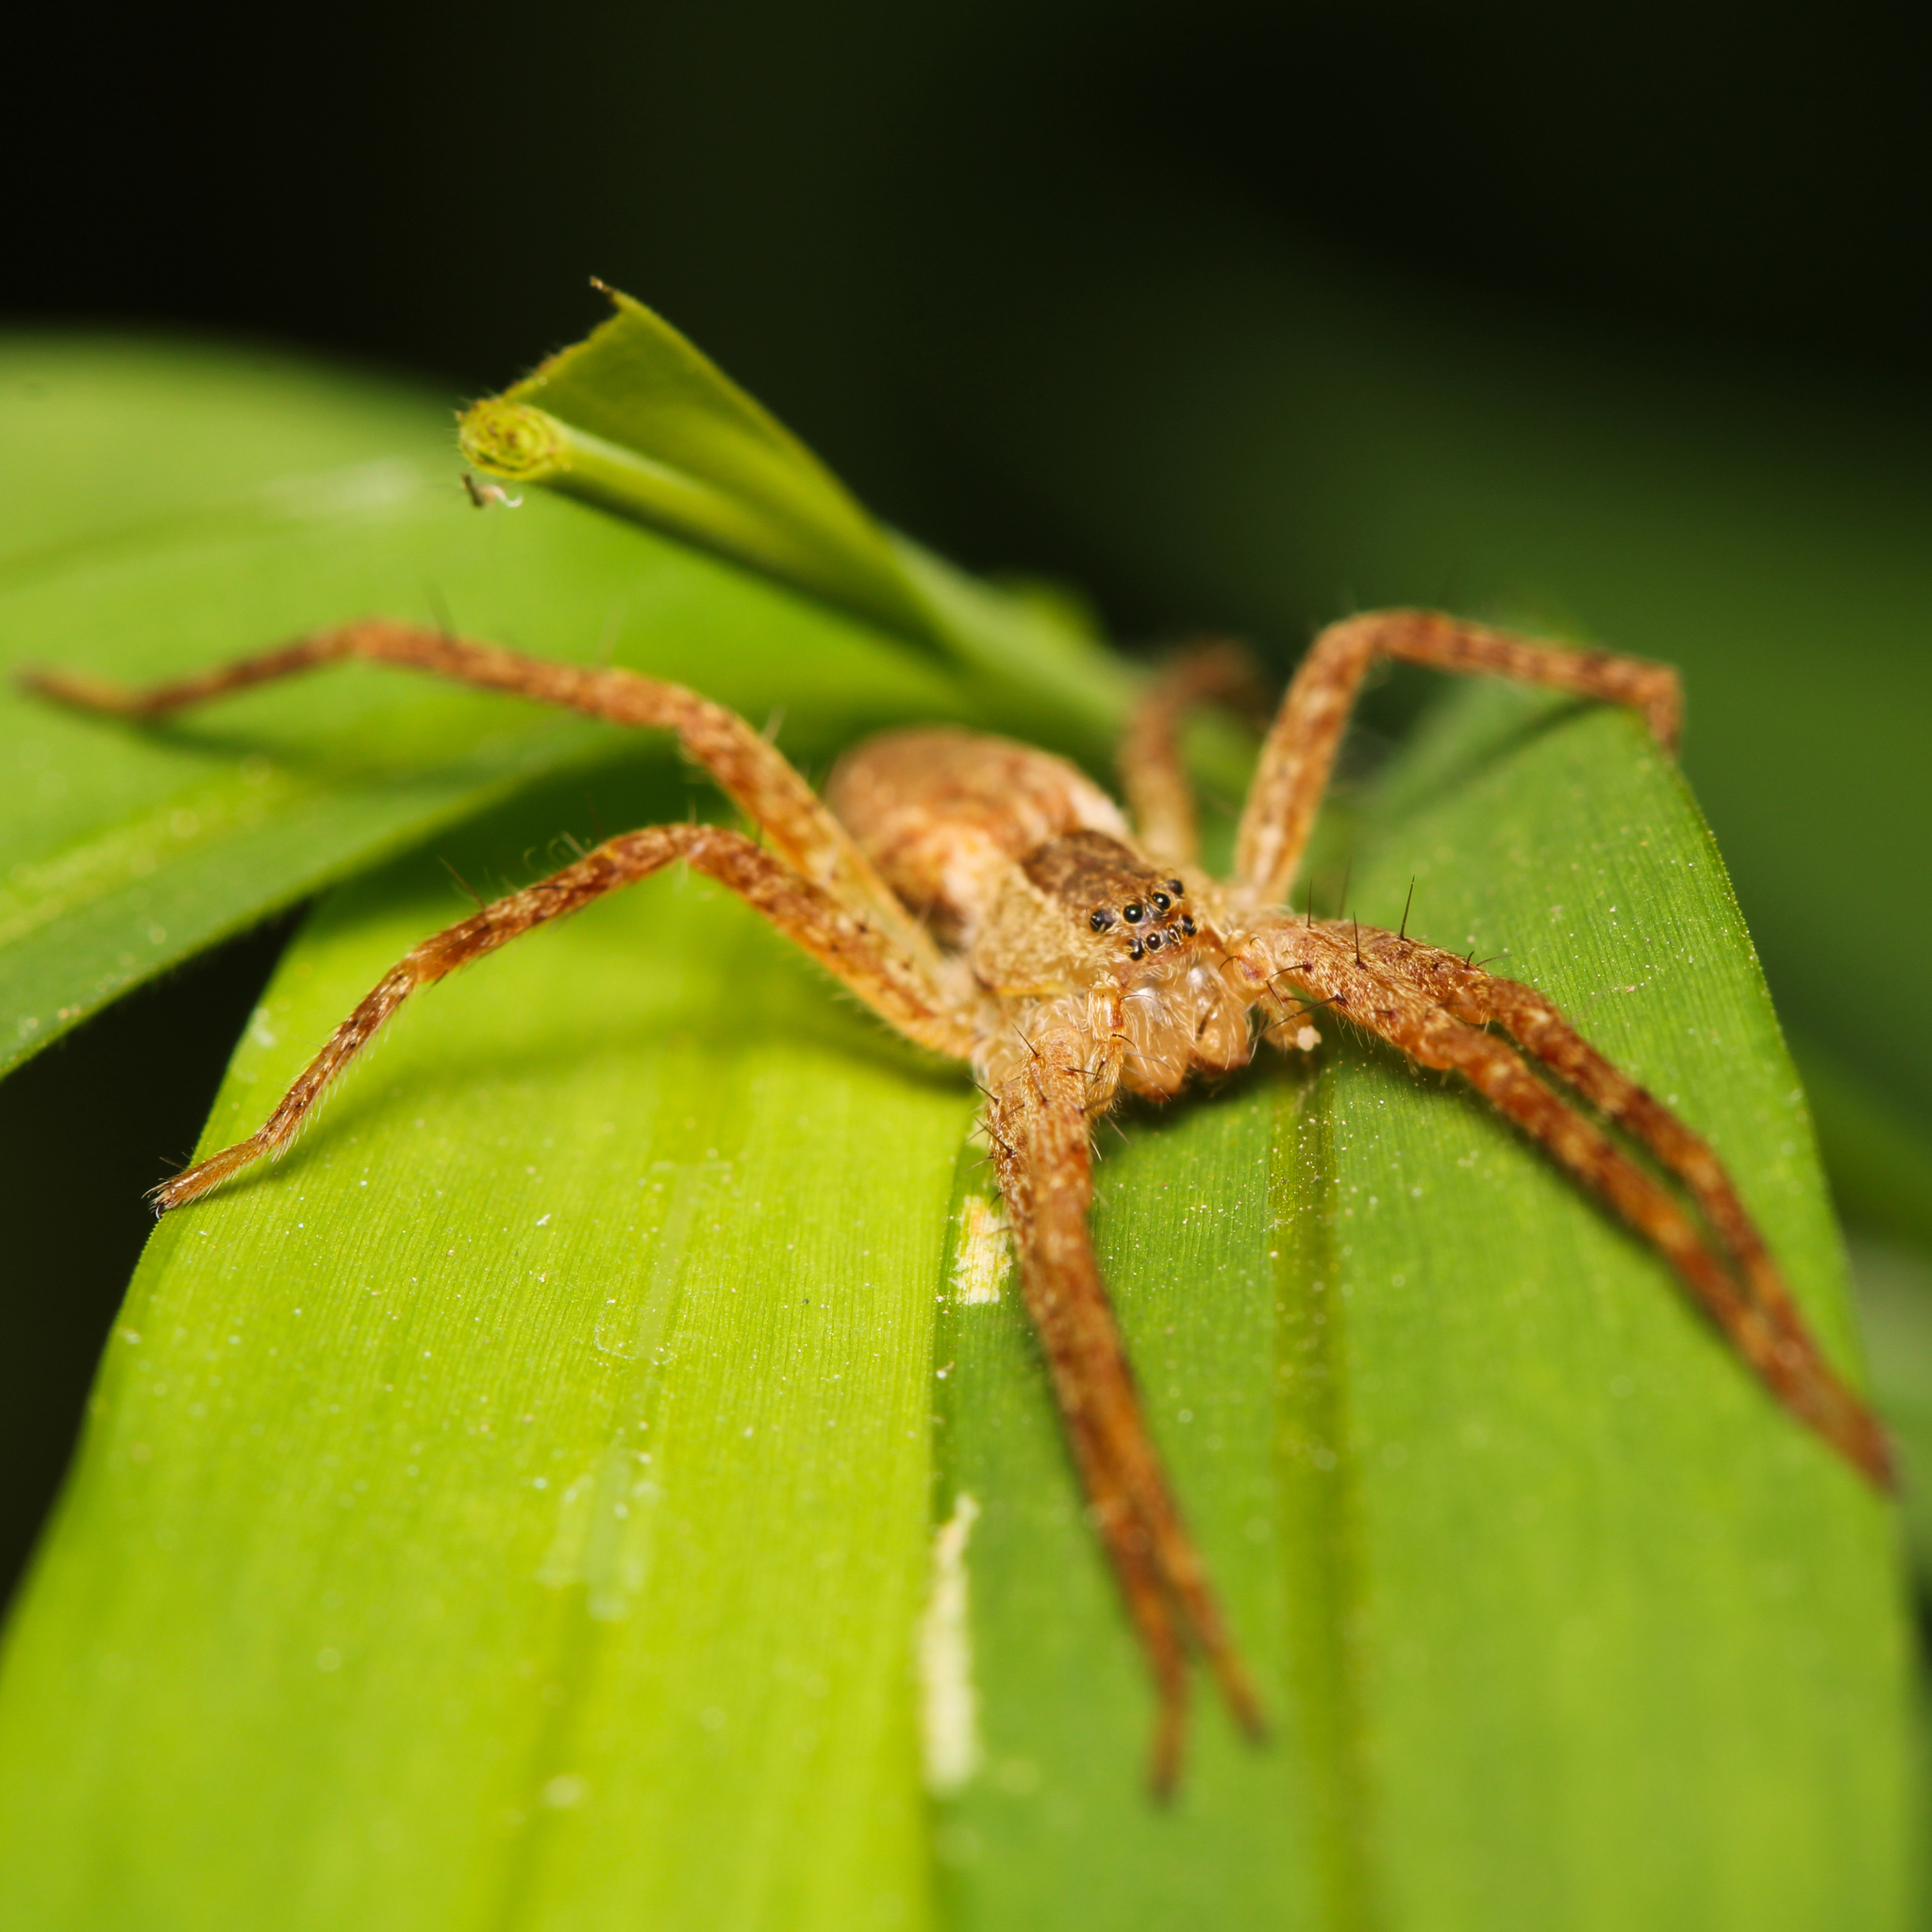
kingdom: Animalia
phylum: Arthropoda
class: Arachnida
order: Araneae
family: Pisauridae
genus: Pisaurina
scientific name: Pisaurina mira
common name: American nursery web spider
